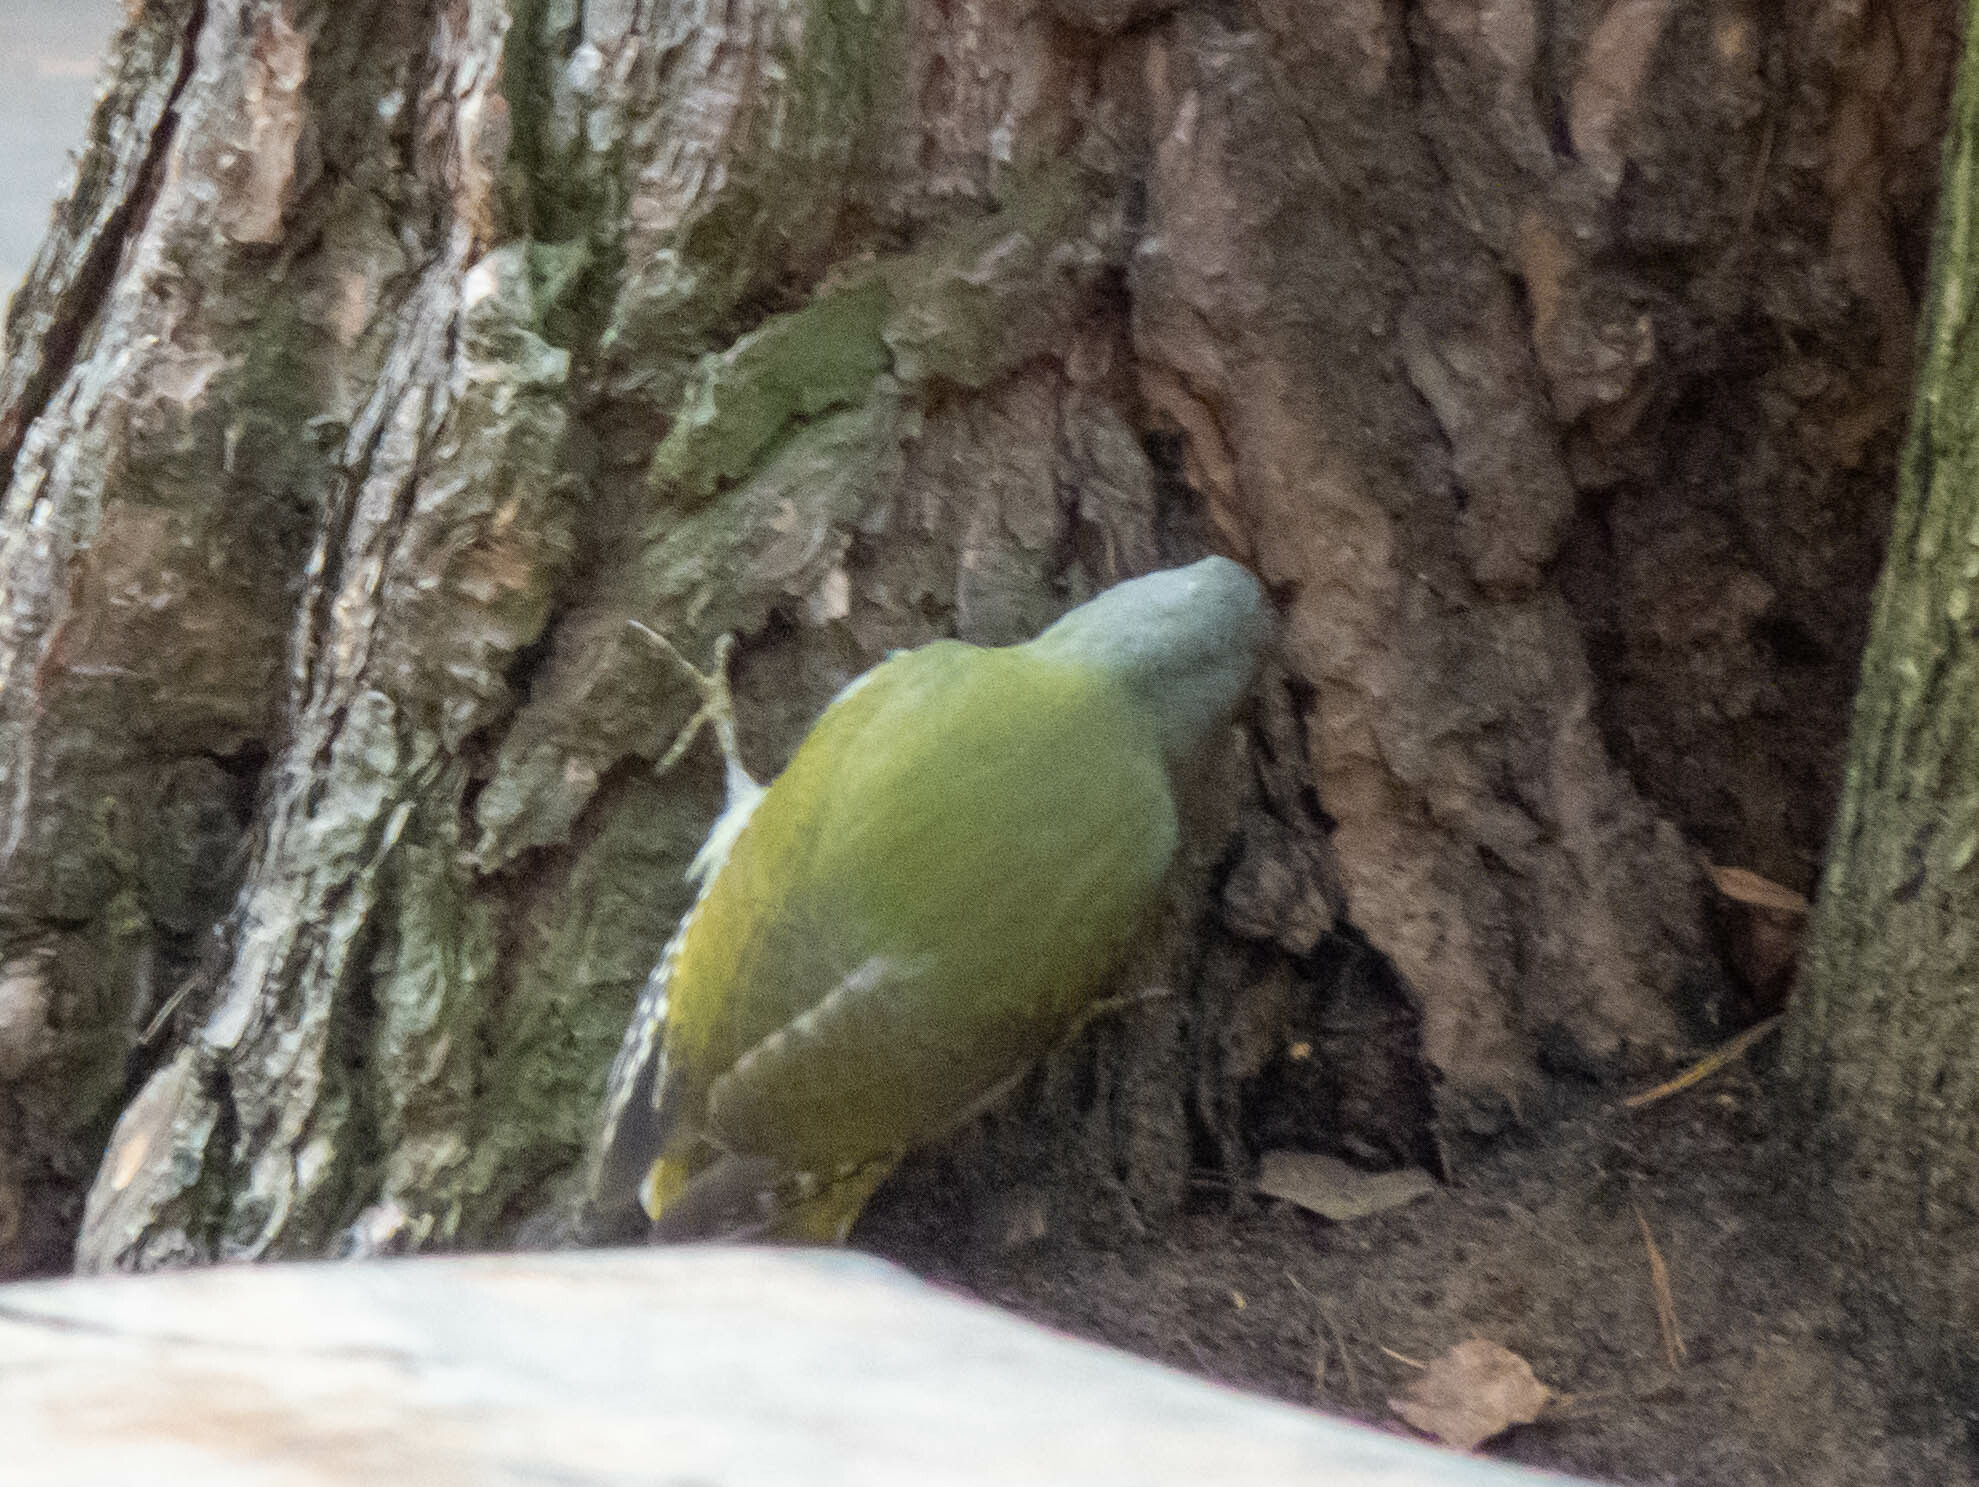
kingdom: Animalia
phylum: Chordata
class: Aves
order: Piciformes
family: Picidae
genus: Picus
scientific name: Picus canus
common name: Grey-headed woodpecker
